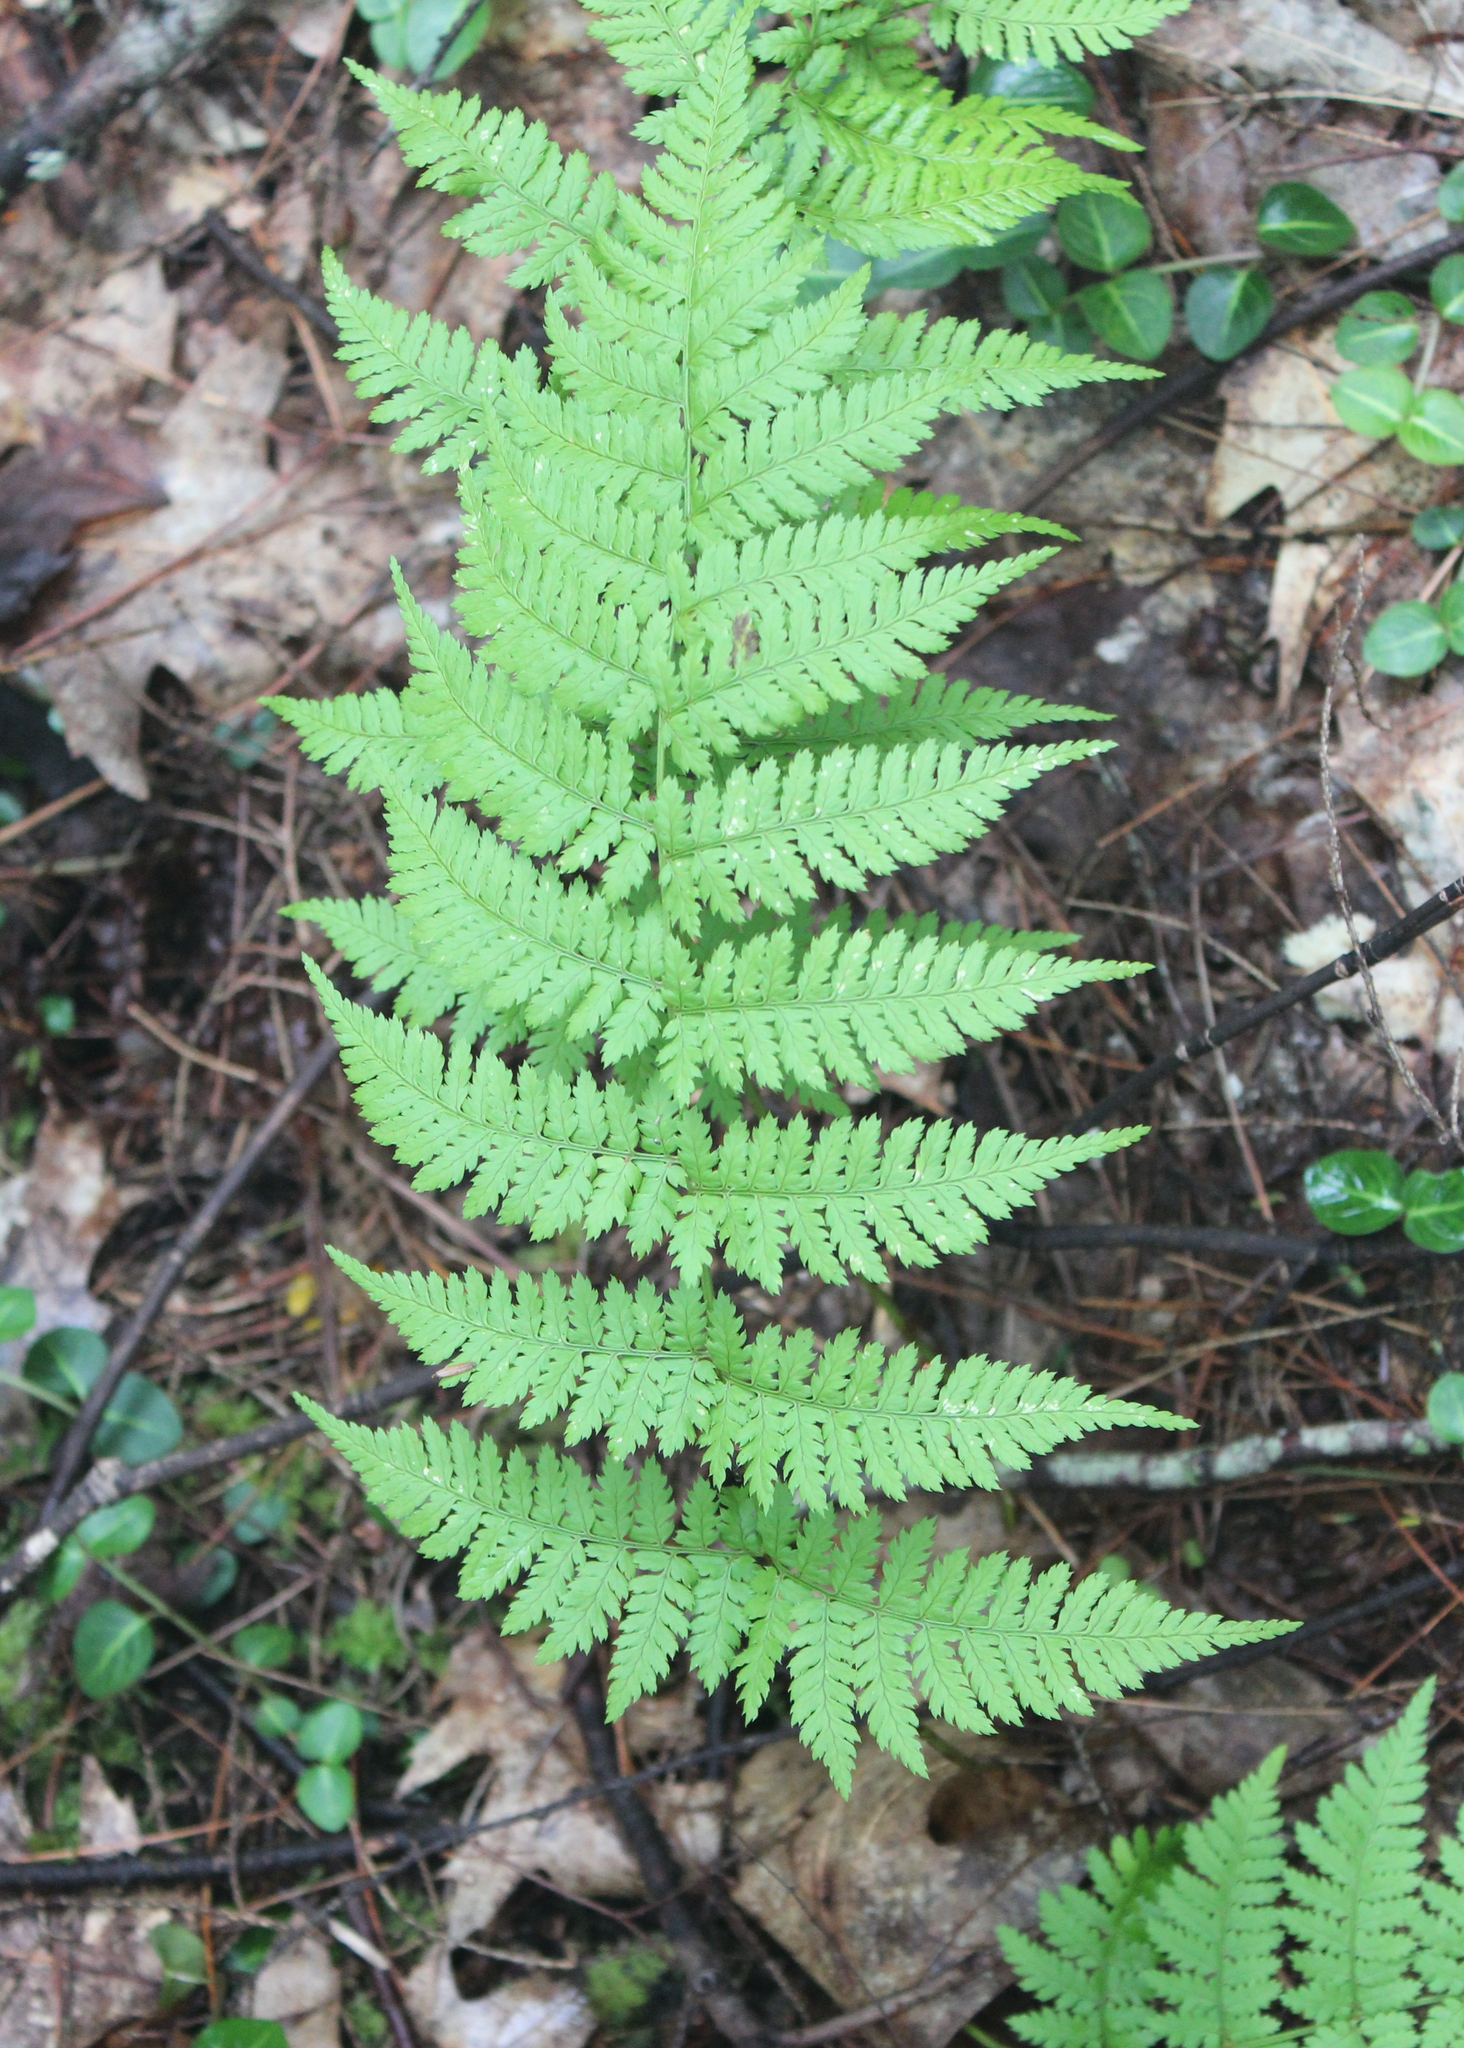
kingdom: Plantae
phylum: Tracheophyta
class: Polypodiopsida
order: Polypodiales
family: Dryopteridaceae
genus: Dryopteris
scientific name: Dryopteris intermedia
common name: Evergreen wood fern
